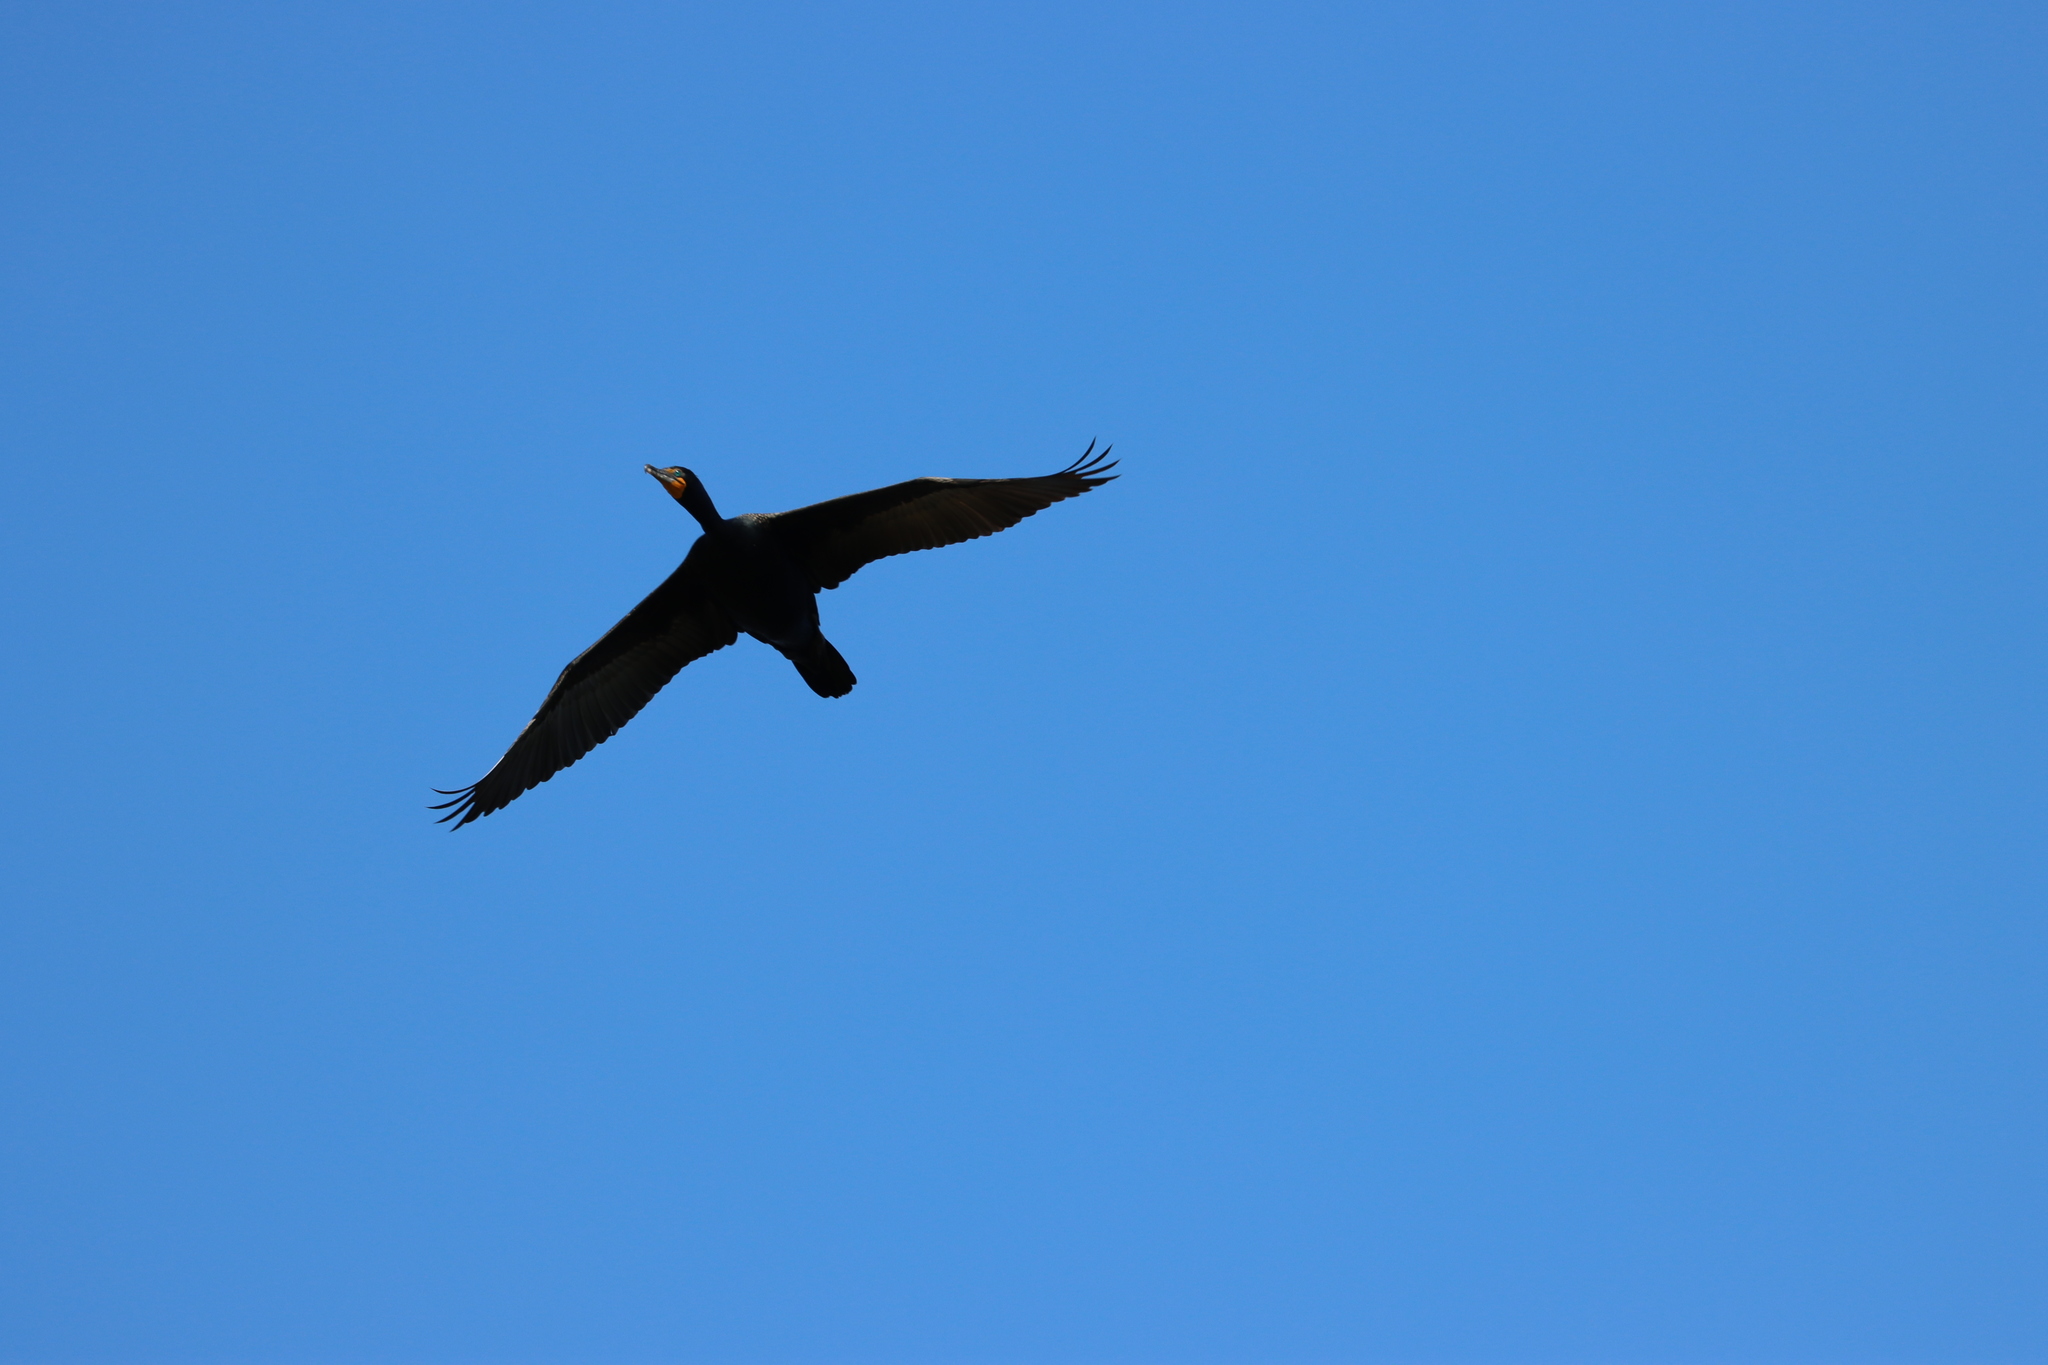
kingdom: Animalia
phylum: Chordata
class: Aves
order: Suliformes
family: Phalacrocoracidae
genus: Phalacrocorax
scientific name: Phalacrocorax auritus
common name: Double-crested cormorant
